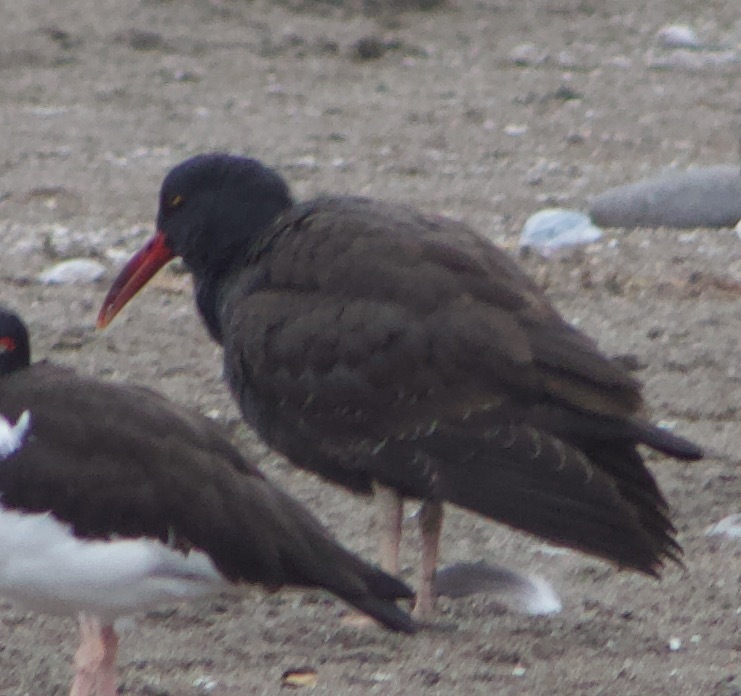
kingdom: Animalia
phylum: Chordata
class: Aves
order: Charadriiformes
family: Haematopodidae
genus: Haematopus
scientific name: Haematopus ater
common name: Blackish oystercatcher
